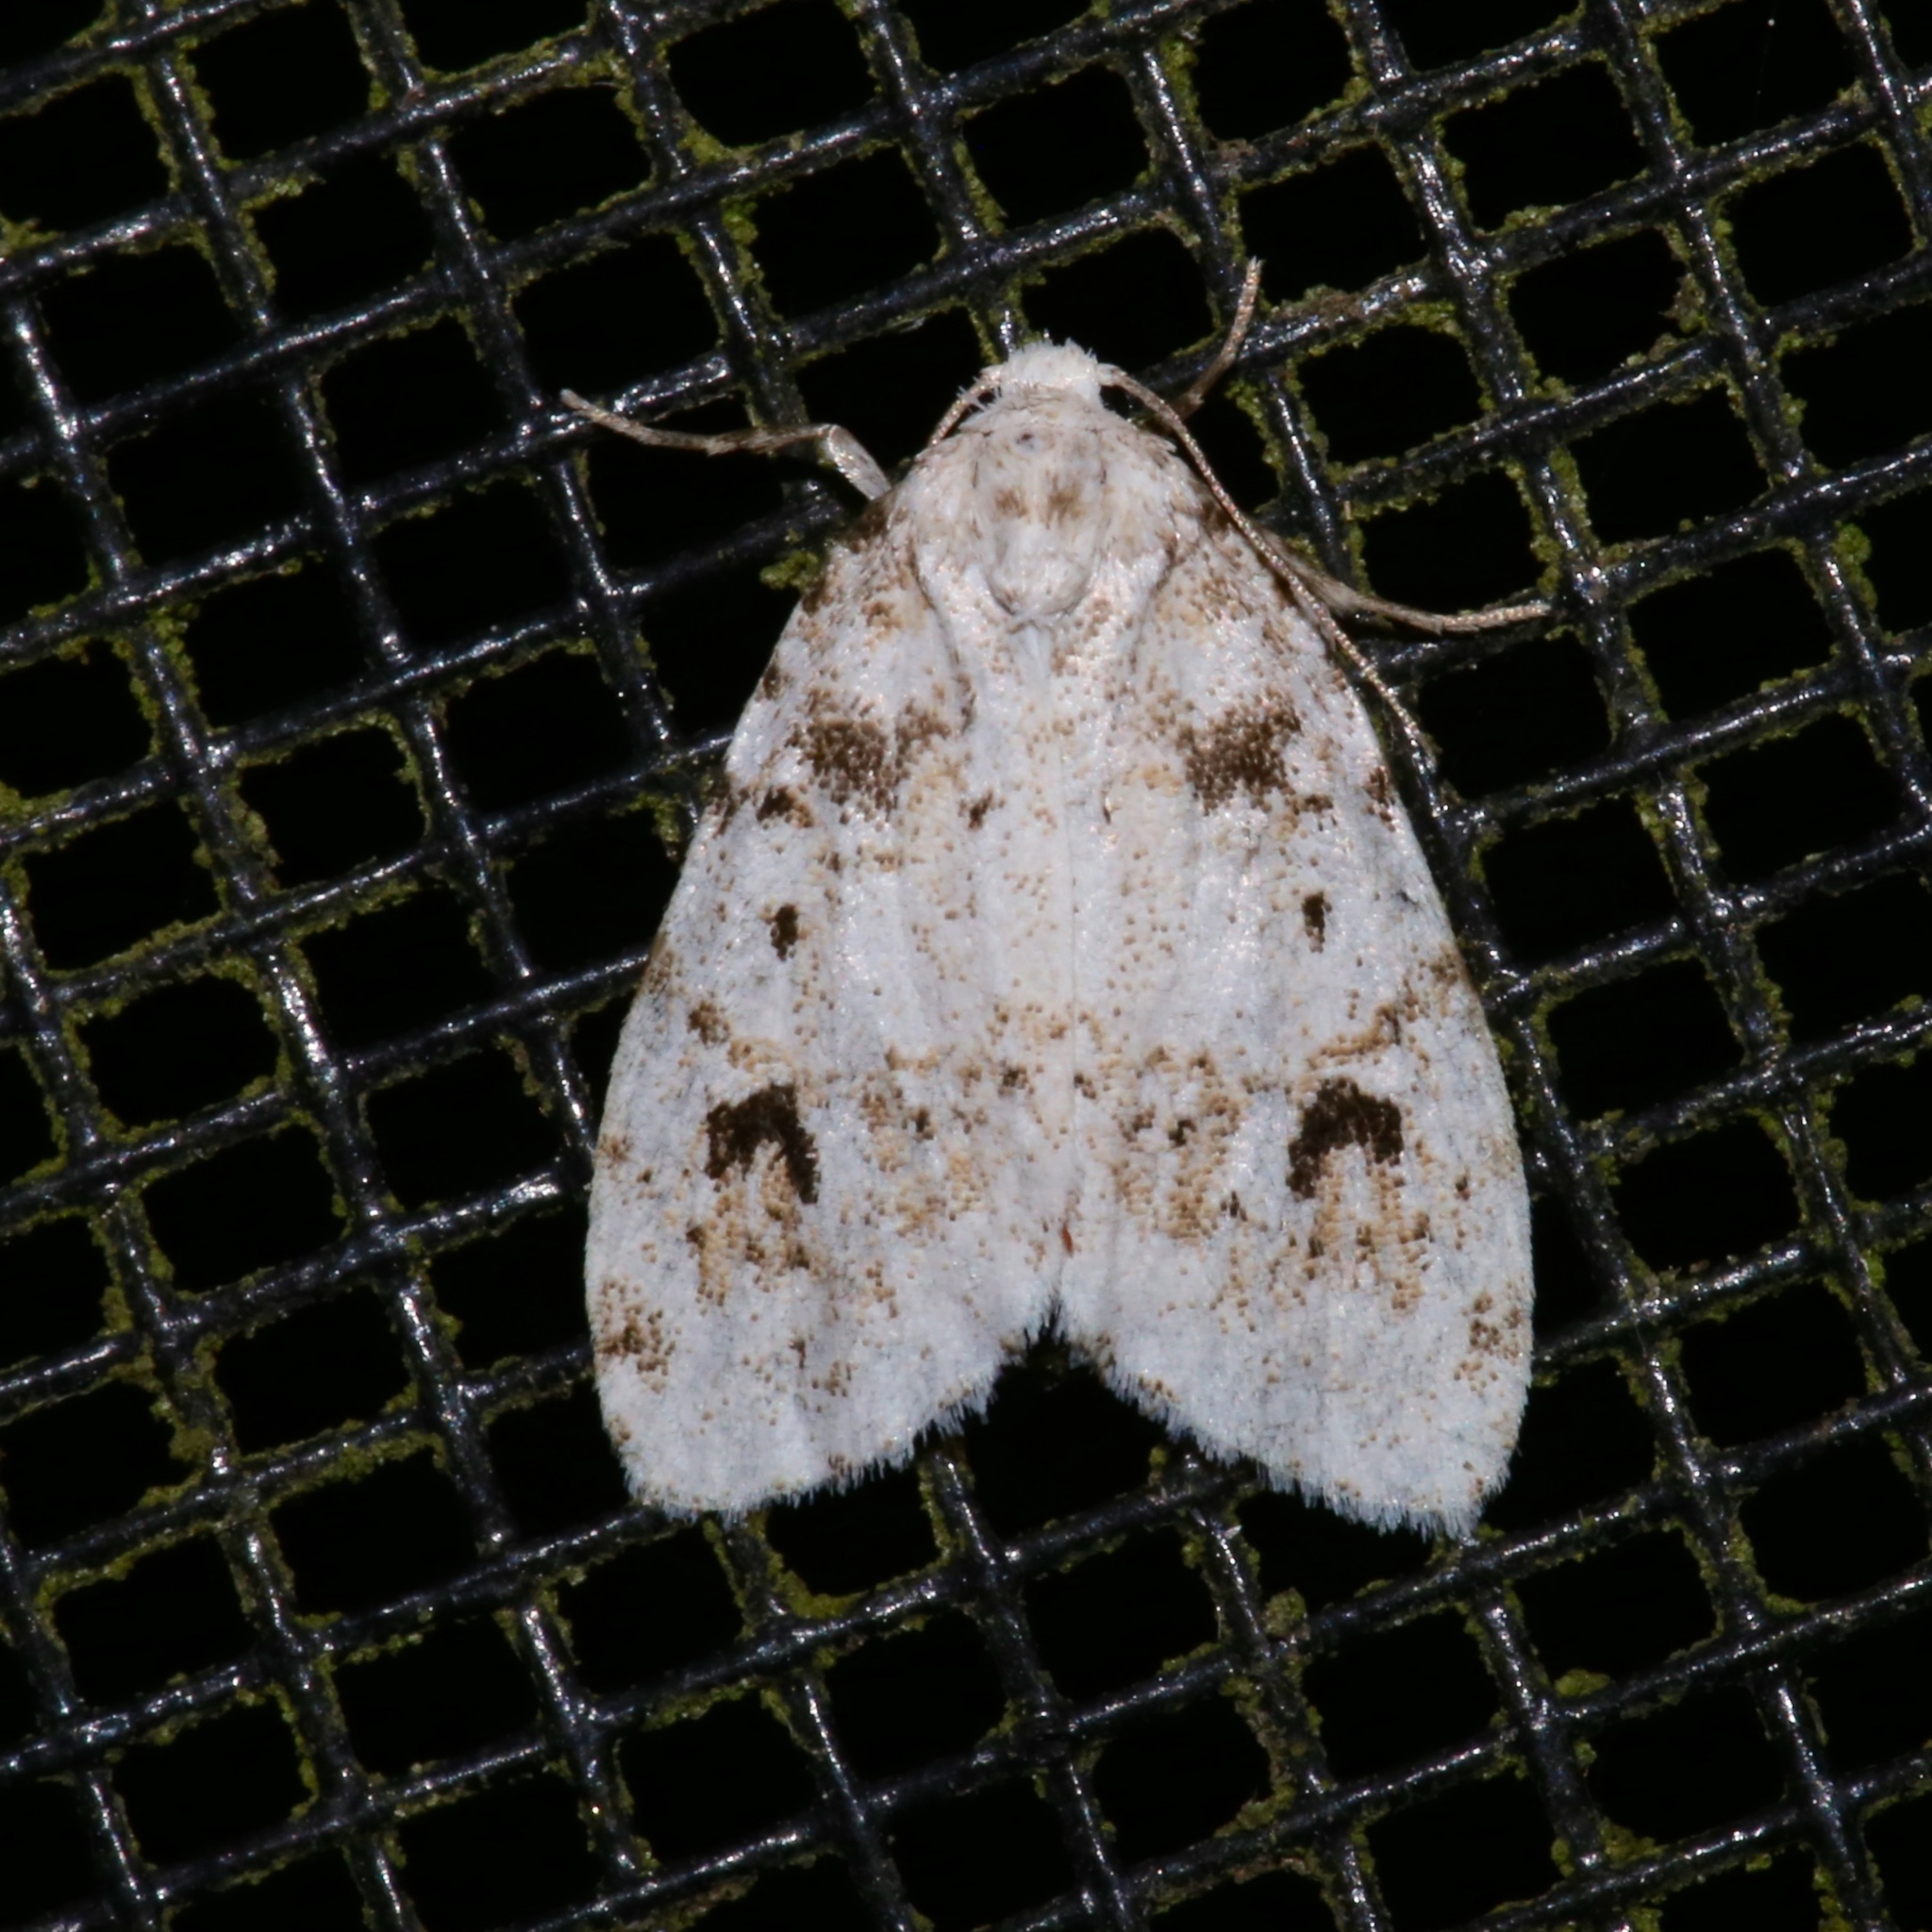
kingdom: Animalia
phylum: Arthropoda
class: Insecta
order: Lepidoptera
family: Erebidae
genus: Clemensia
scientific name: Clemensia ochreata
